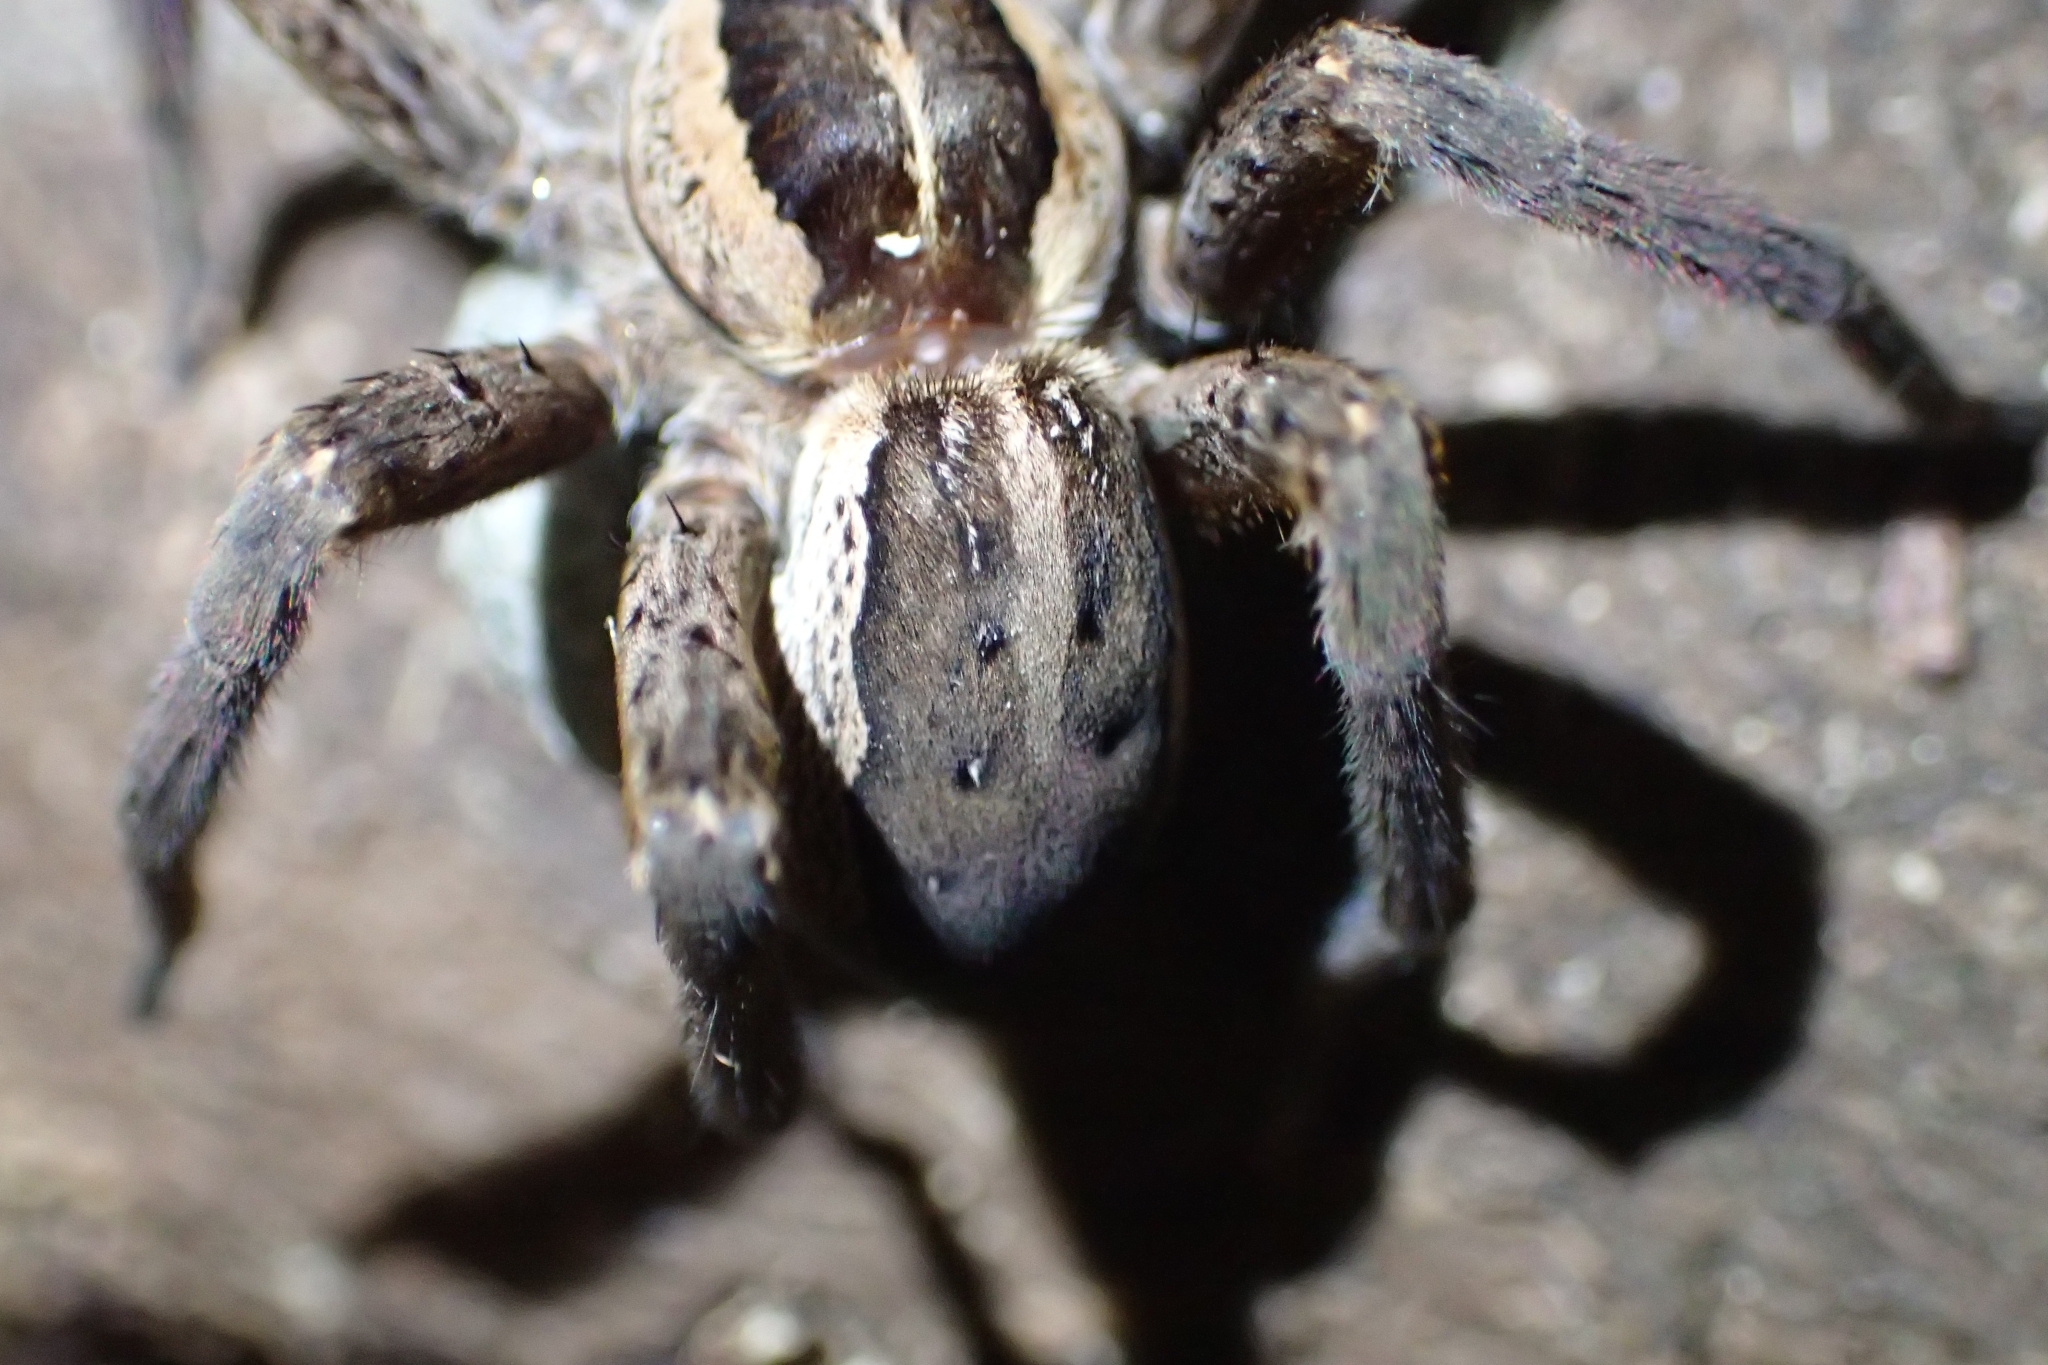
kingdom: Animalia
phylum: Arthropoda
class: Arachnida
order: Araneae
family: Pisauridae
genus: Dolomedes
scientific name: Dolomedes minor
